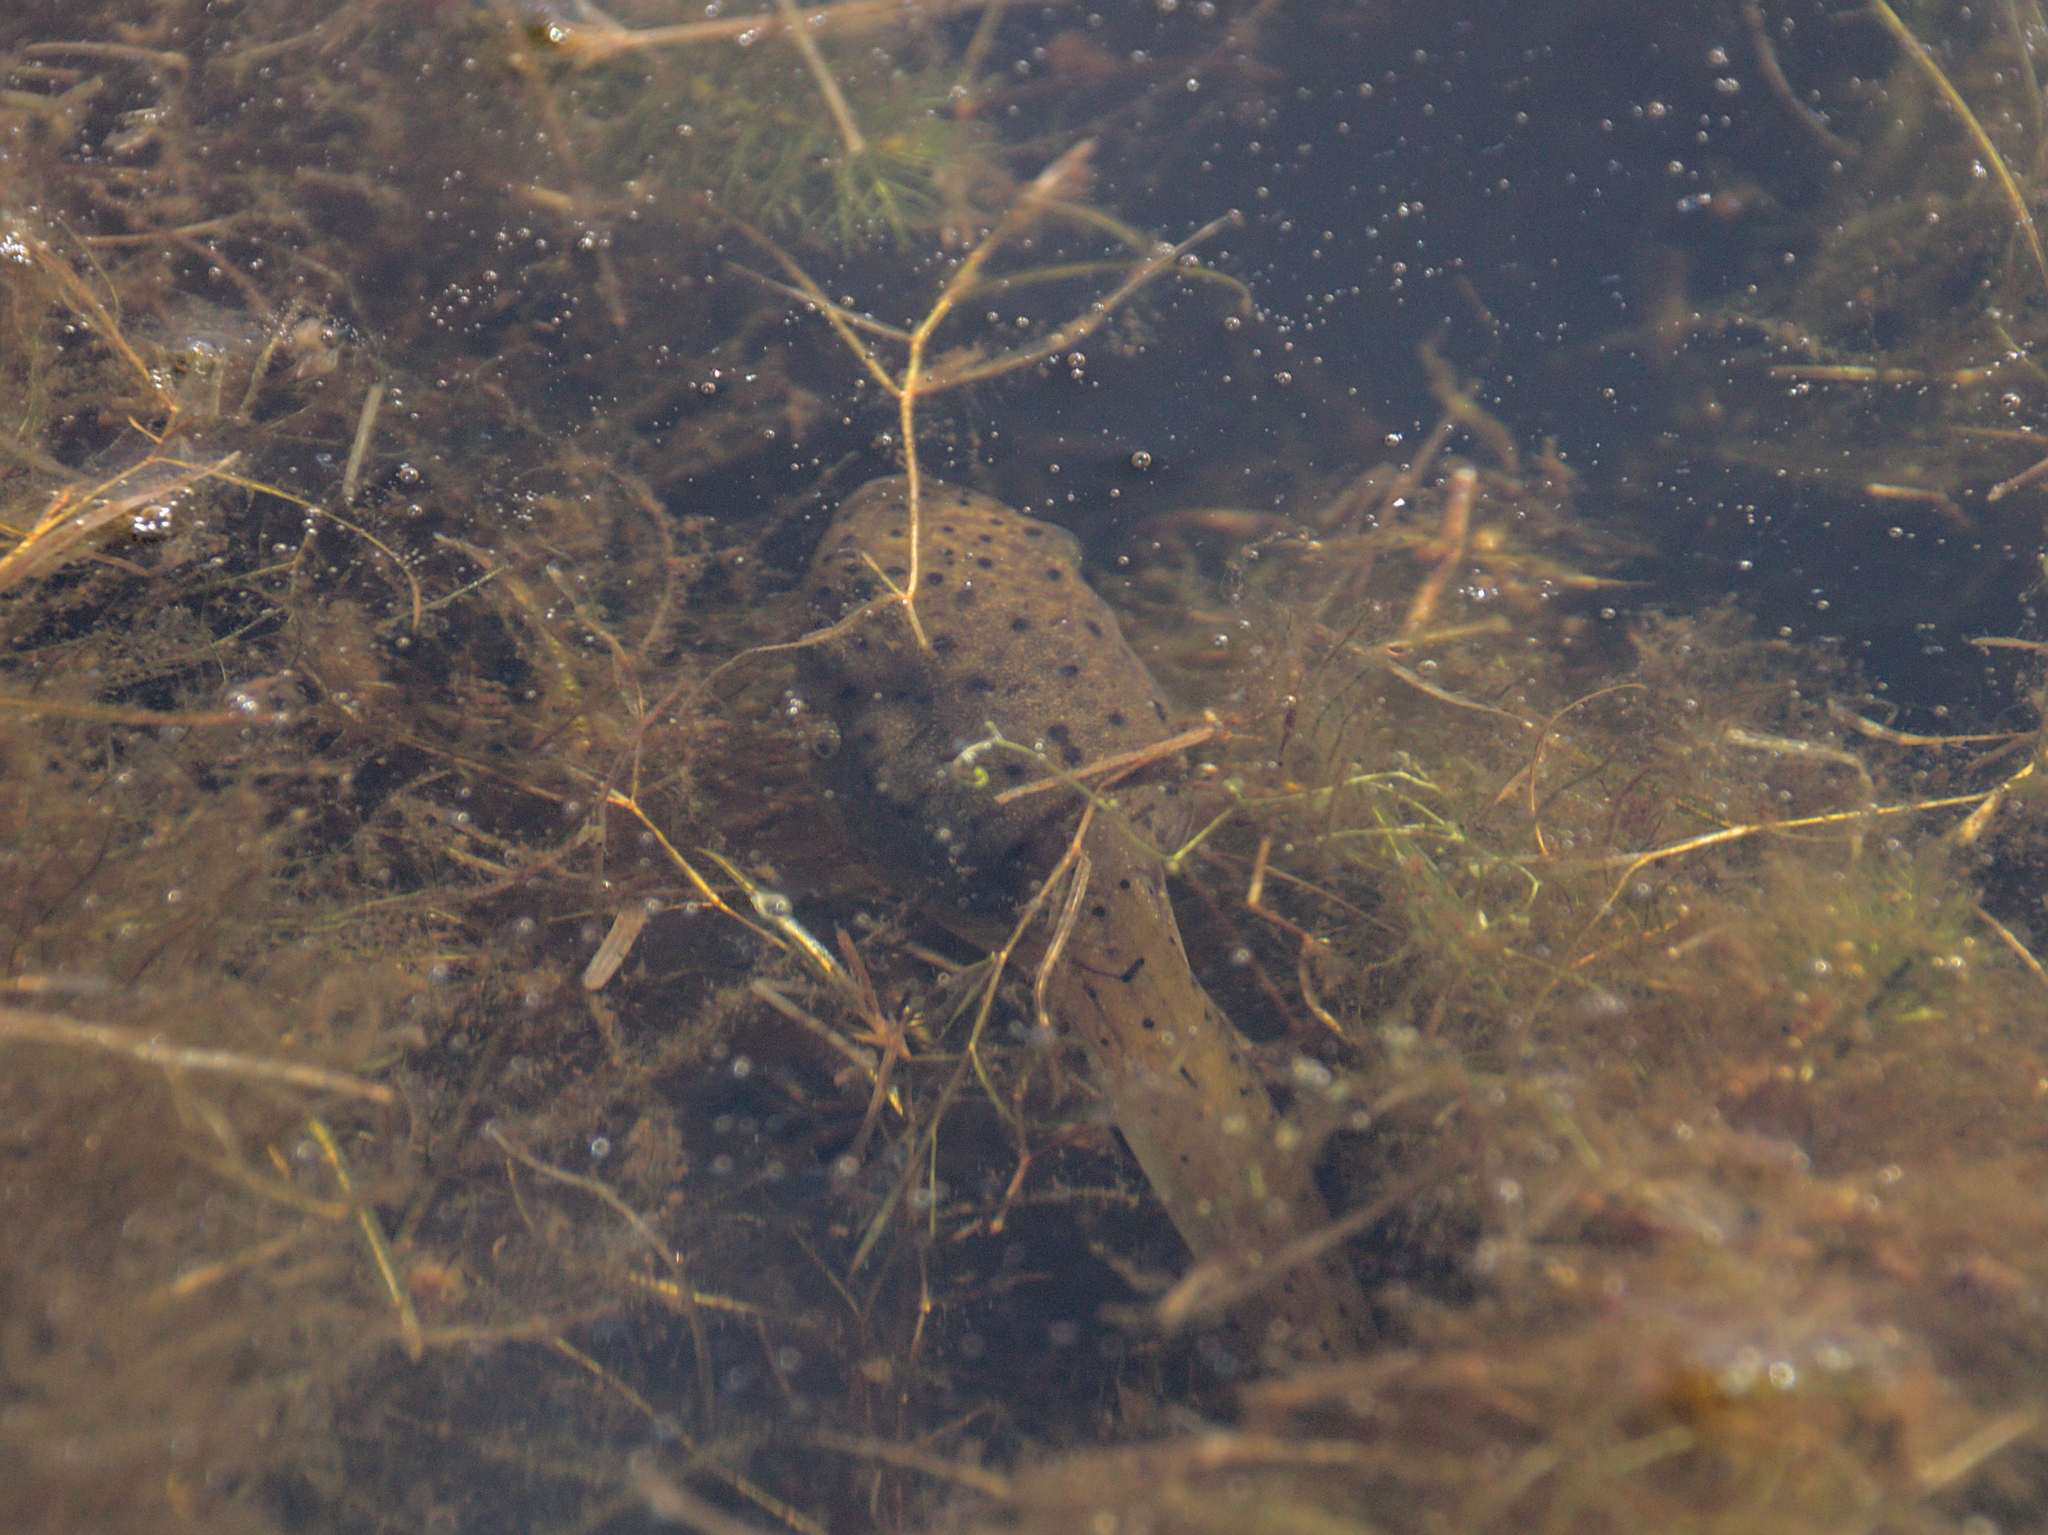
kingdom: Animalia
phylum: Chordata
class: Amphibia
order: Anura
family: Ranidae
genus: Lithobates
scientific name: Lithobates catesbeianus
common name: American bullfrog
